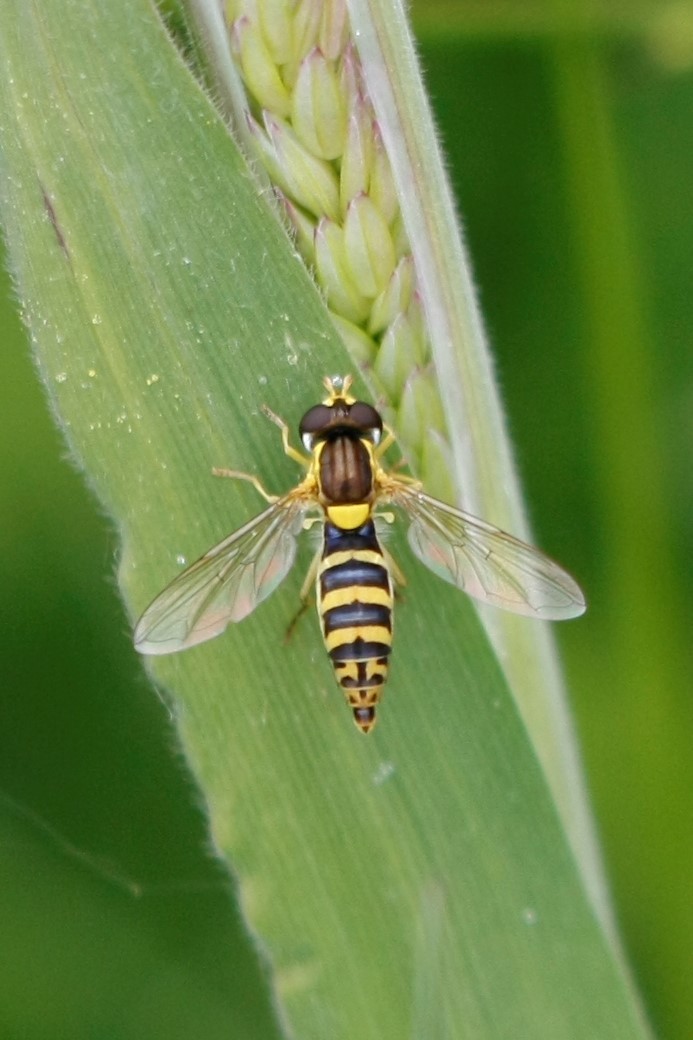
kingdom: Animalia
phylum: Arthropoda
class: Insecta
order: Diptera
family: Syrphidae
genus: Sphaerophoria
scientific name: Sphaerophoria
